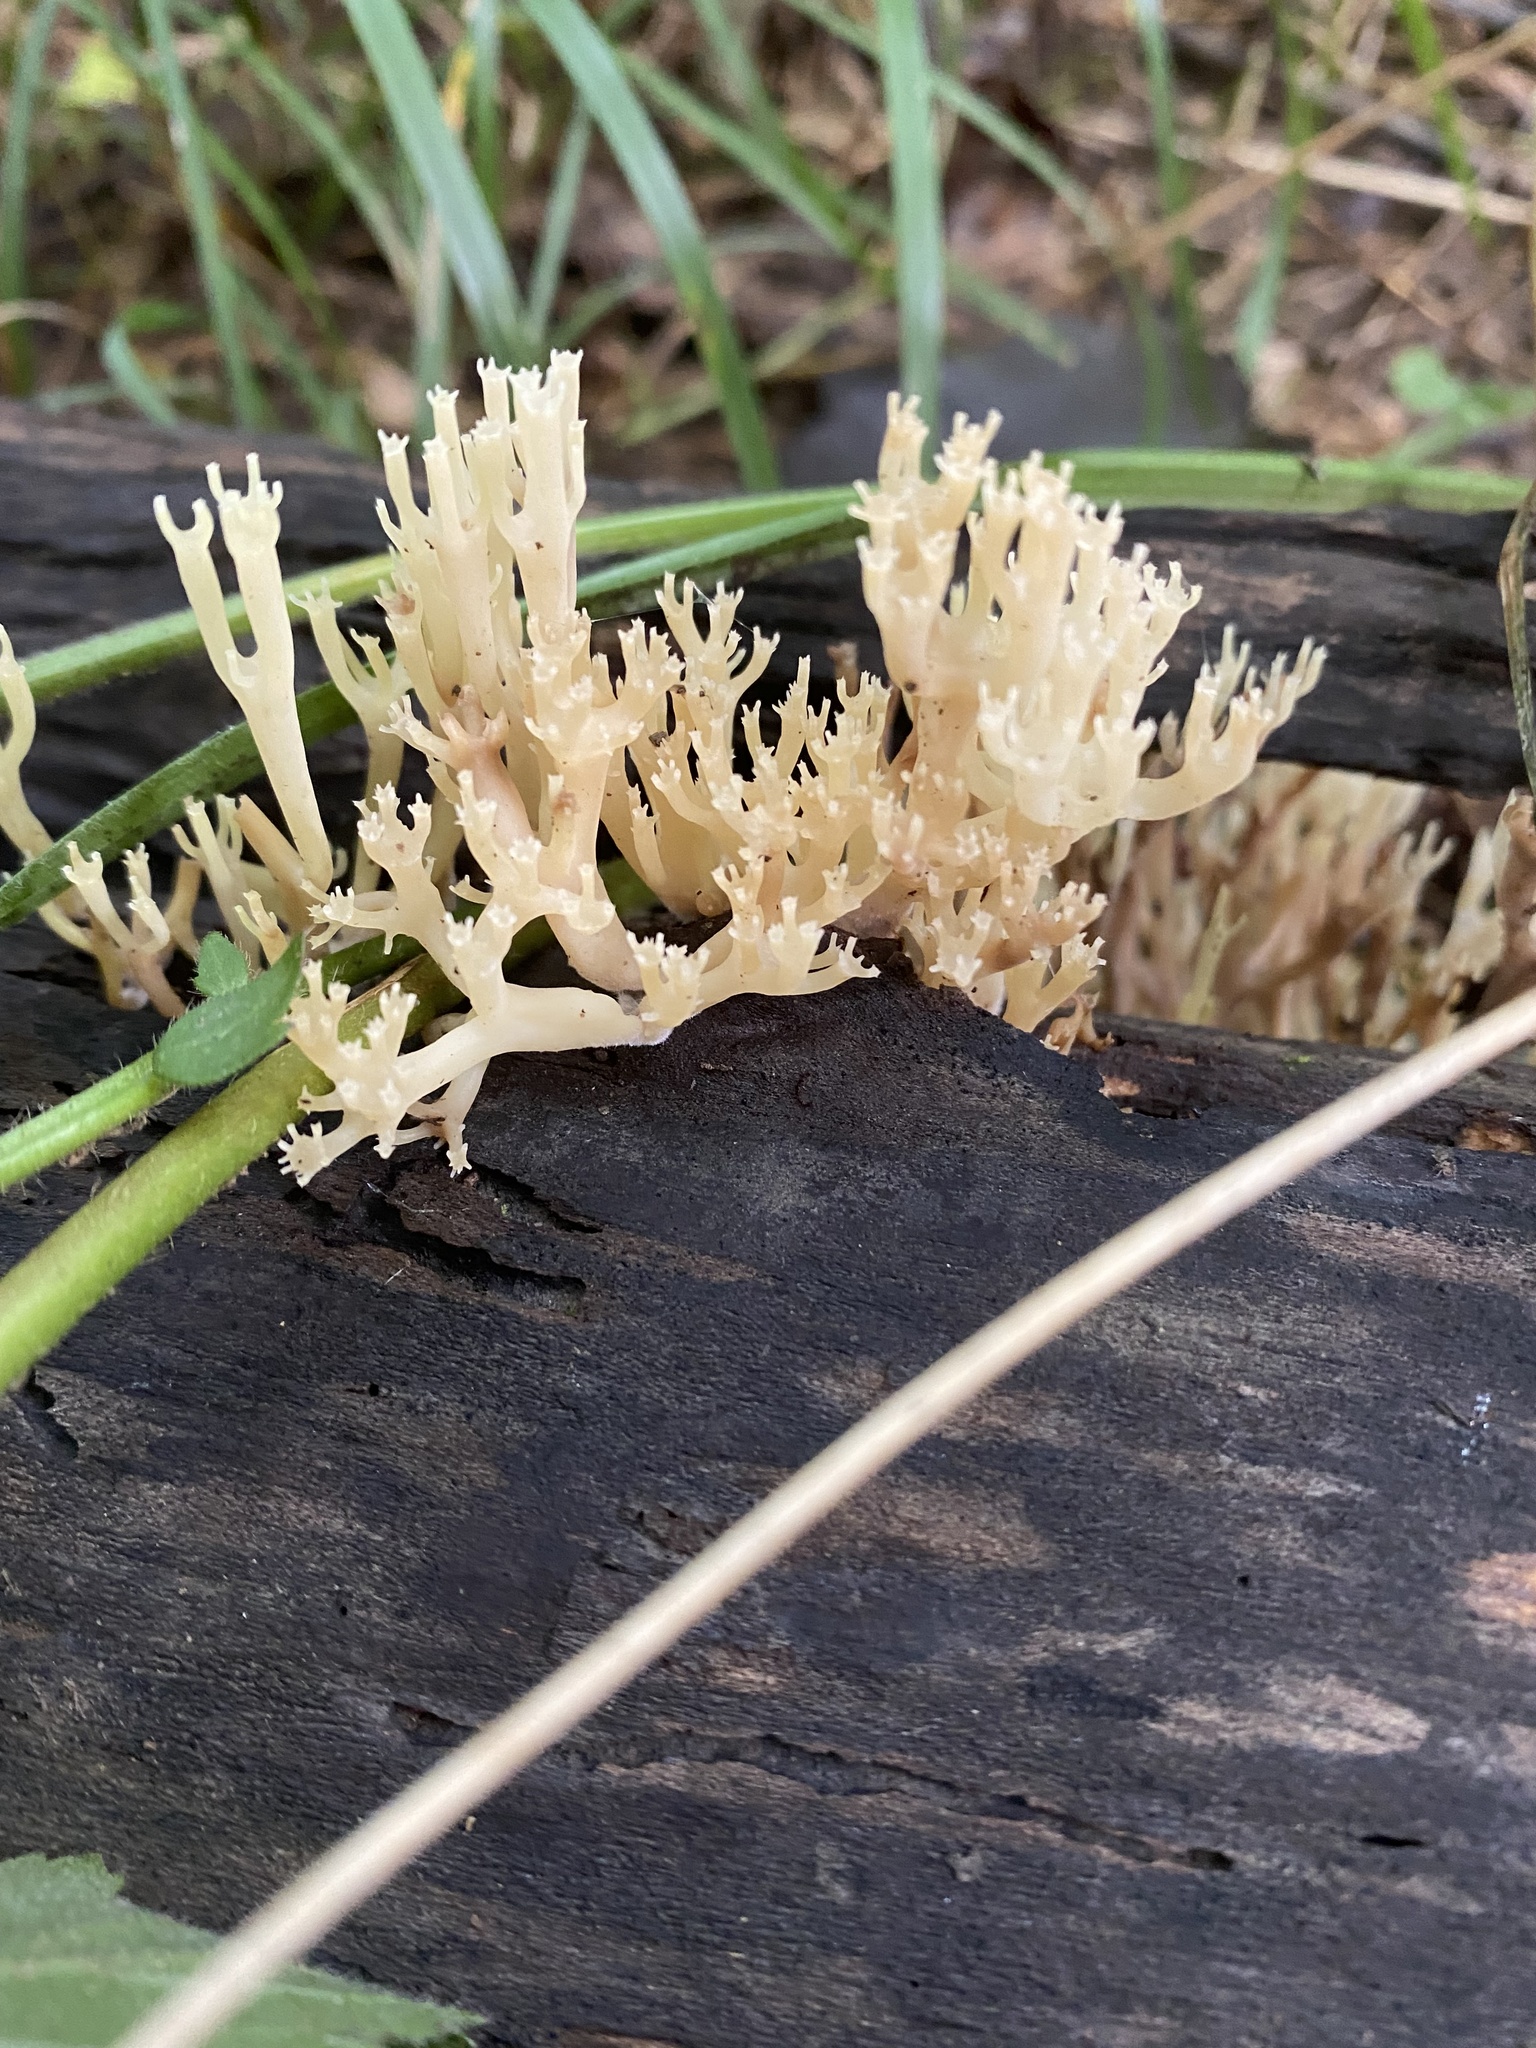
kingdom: Fungi
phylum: Basidiomycota
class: Agaricomycetes
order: Russulales
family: Auriscalpiaceae
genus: Artomyces
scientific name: Artomyces pyxidatus
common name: Crown-tipped coral fungus
